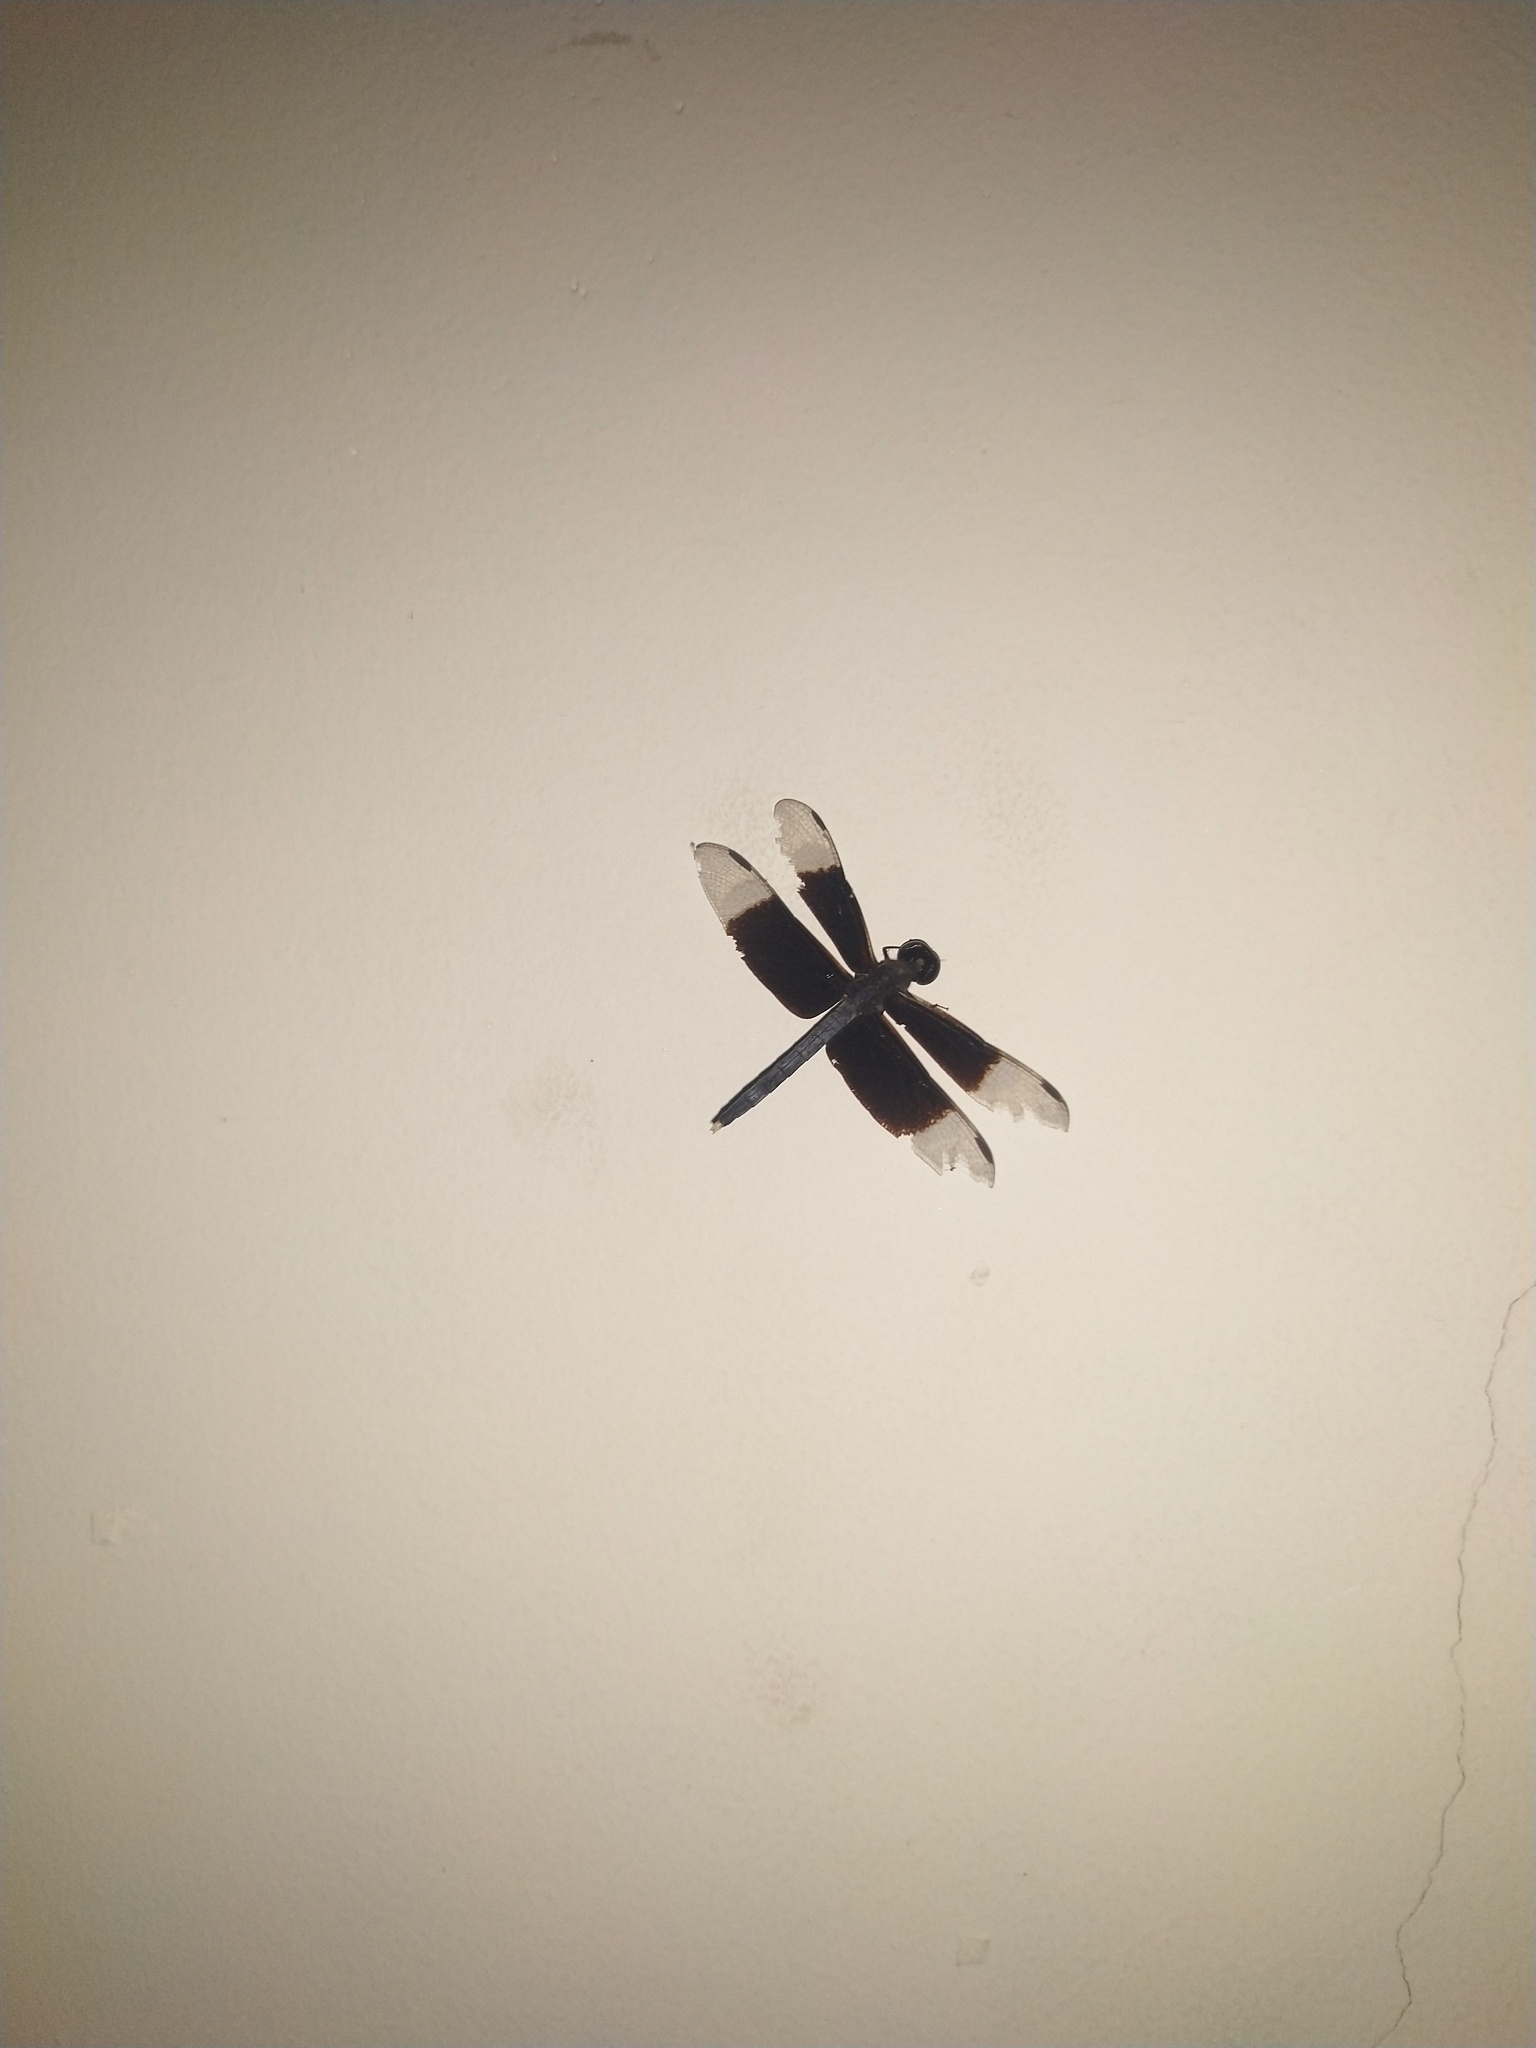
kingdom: Animalia
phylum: Arthropoda
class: Insecta
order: Odonata
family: Libellulidae
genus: Neurothemis
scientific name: Neurothemis tullia
